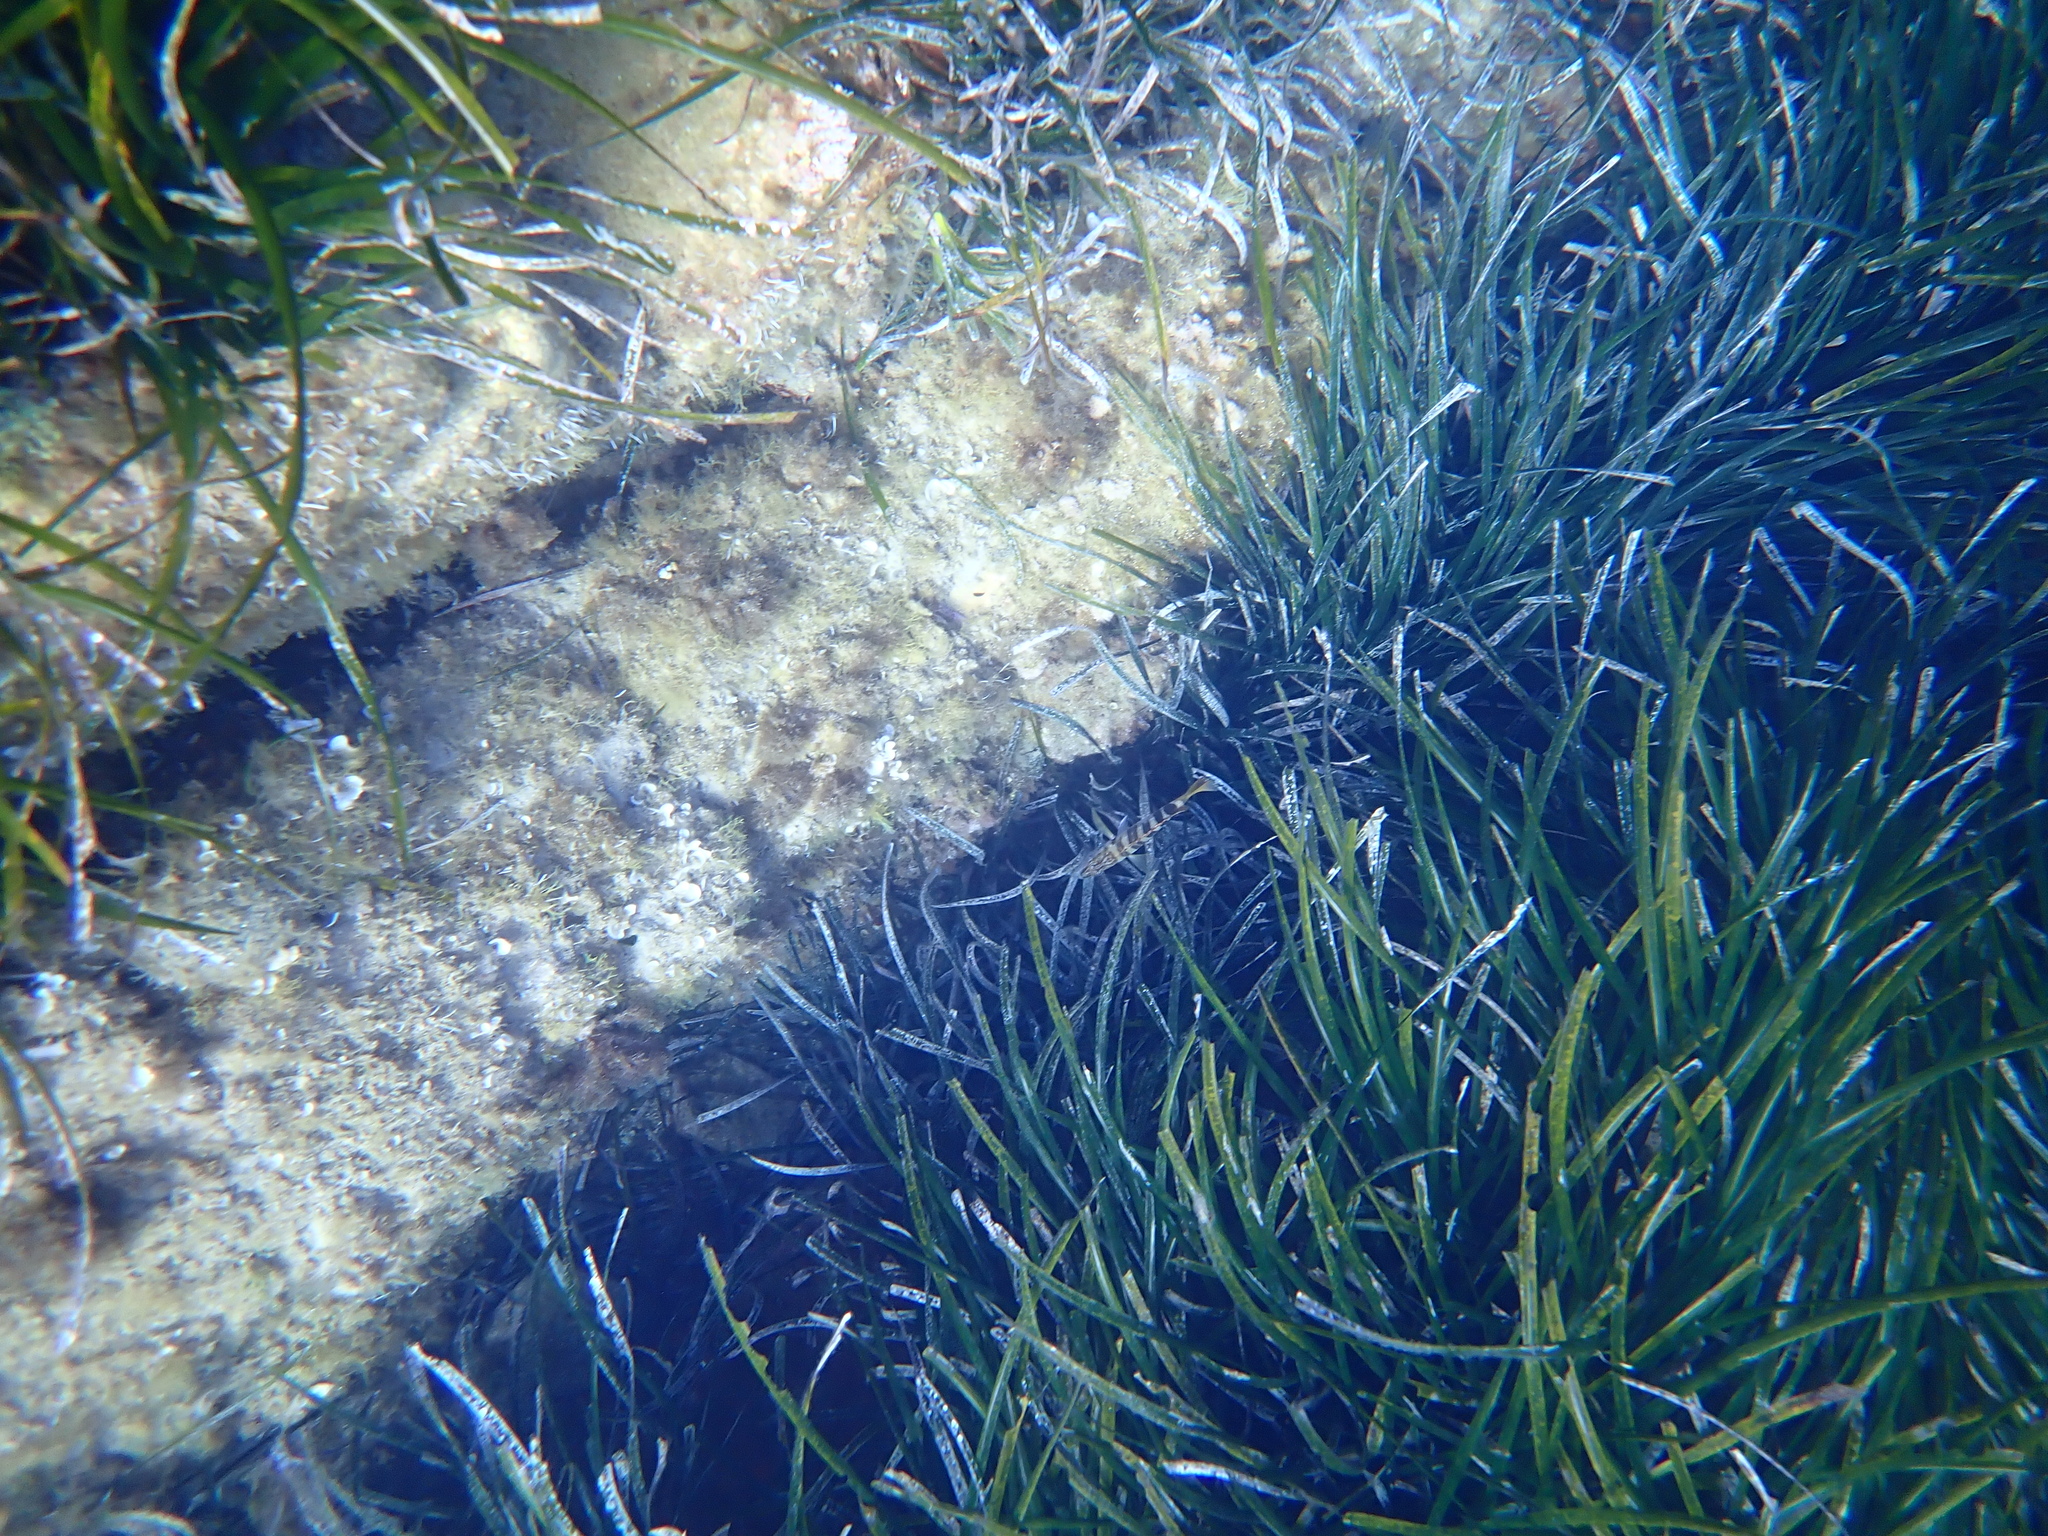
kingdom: Plantae
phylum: Tracheophyta
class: Liliopsida
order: Alismatales
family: Posidoniaceae
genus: Posidonia
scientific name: Posidonia oceanica
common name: Mediterranean tapeweed
